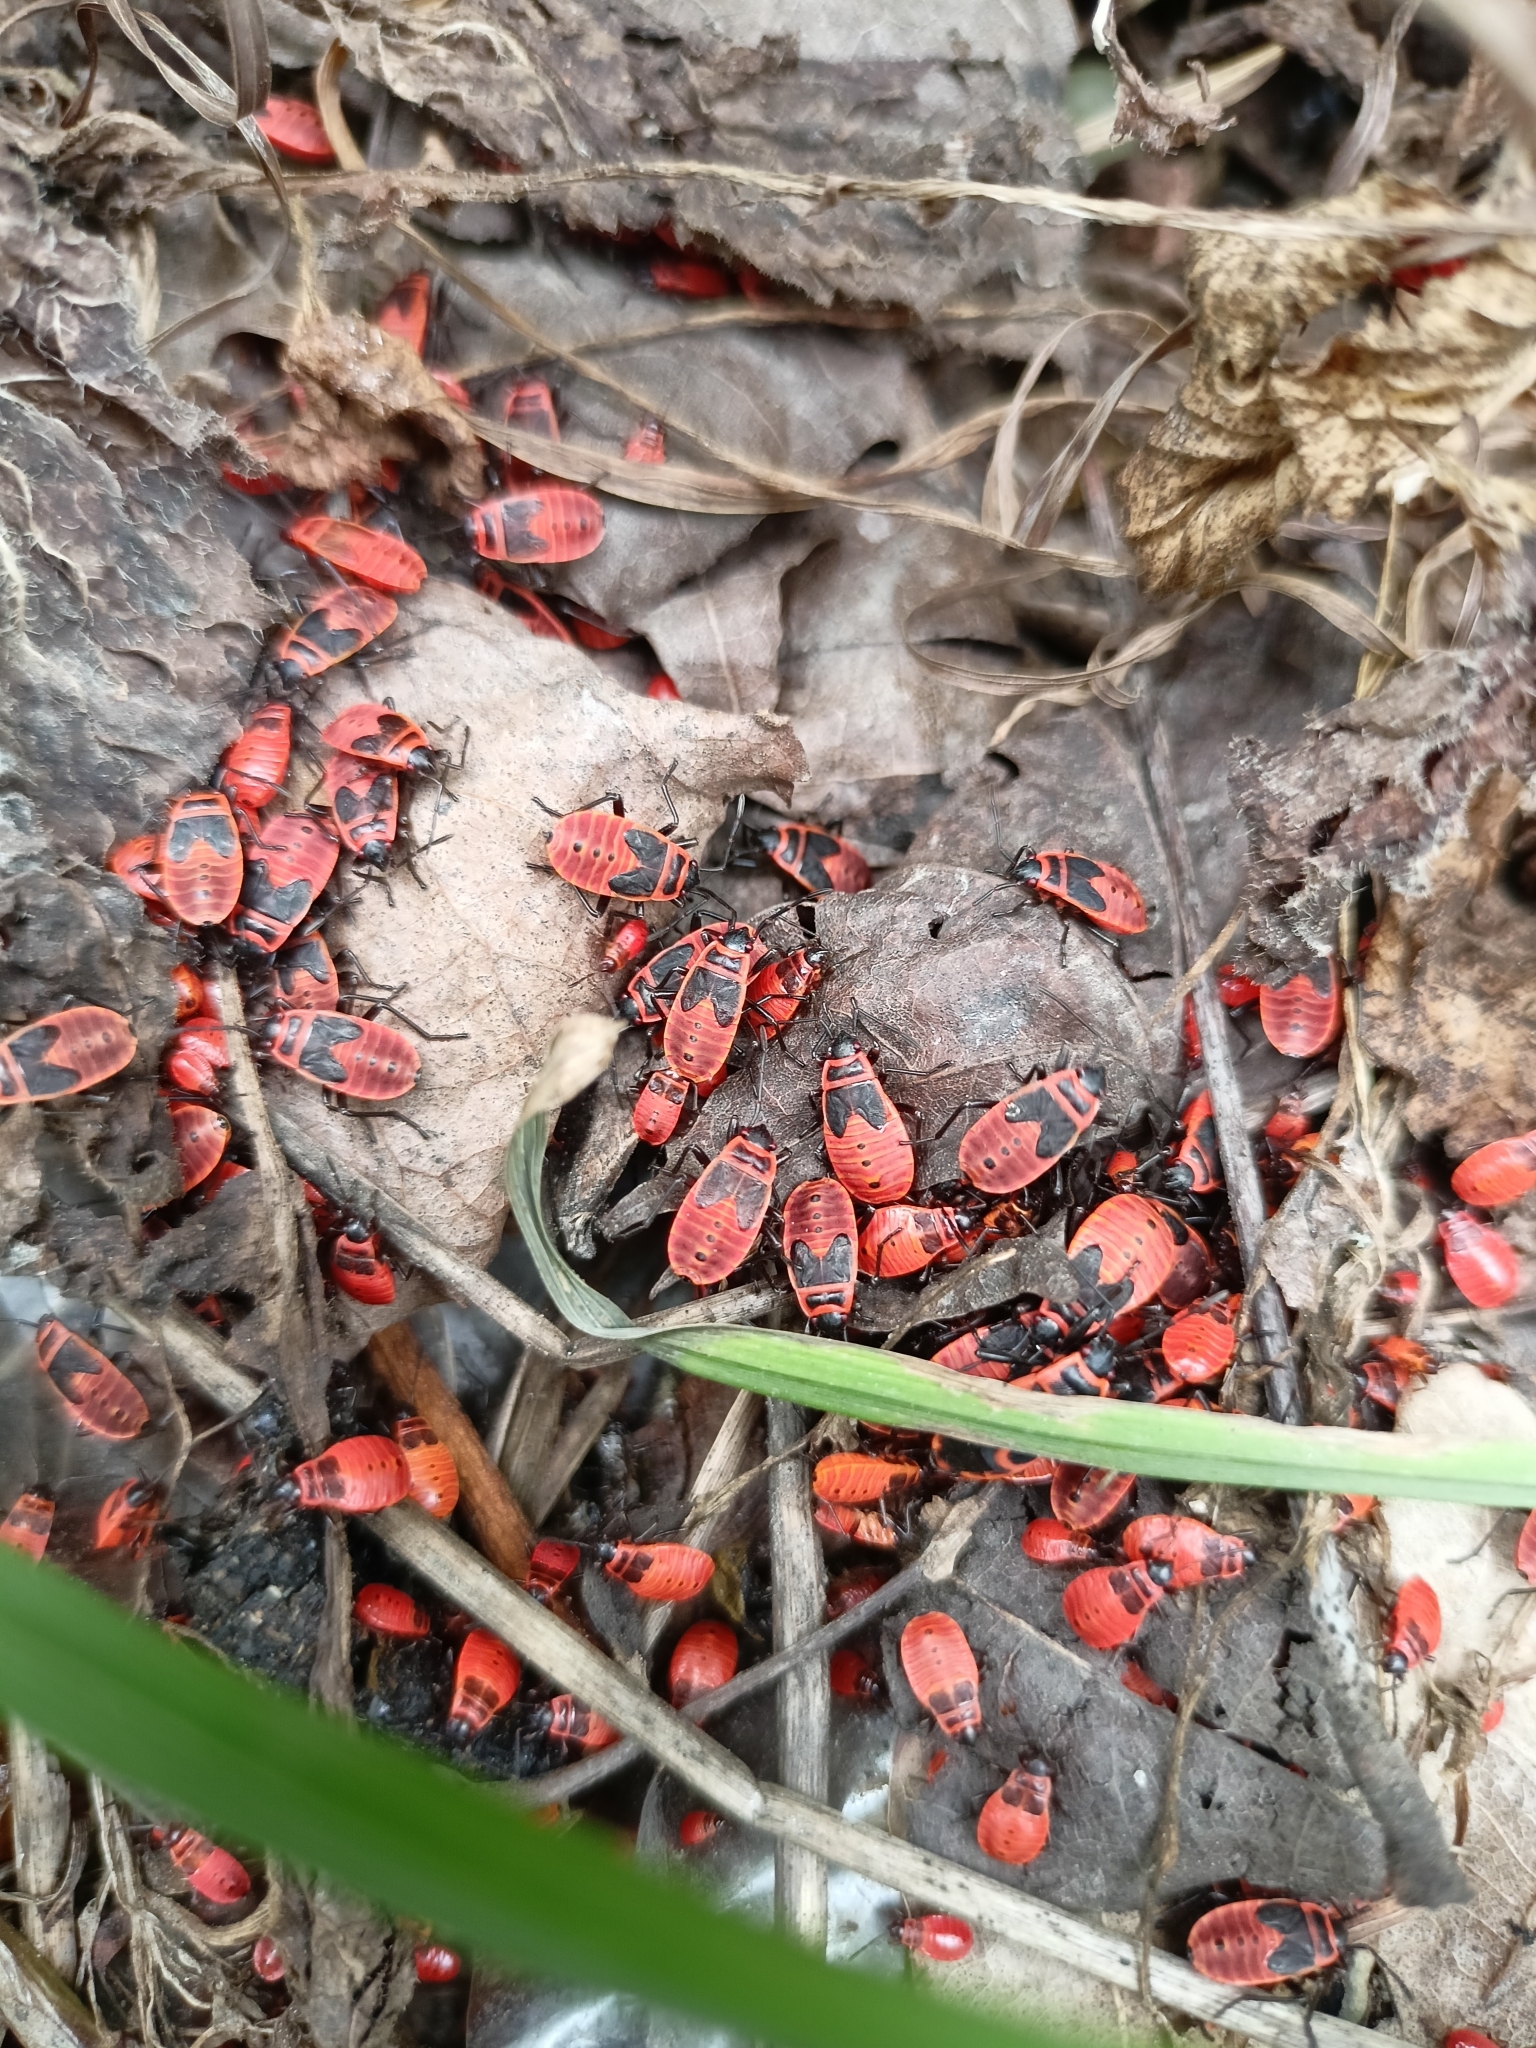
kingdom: Animalia
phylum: Arthropoda
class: Insecta
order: Hemiptera
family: Pyrrhocoridae
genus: Pyrrhocoris
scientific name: Pyrrhocoris apterus
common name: Firebug
